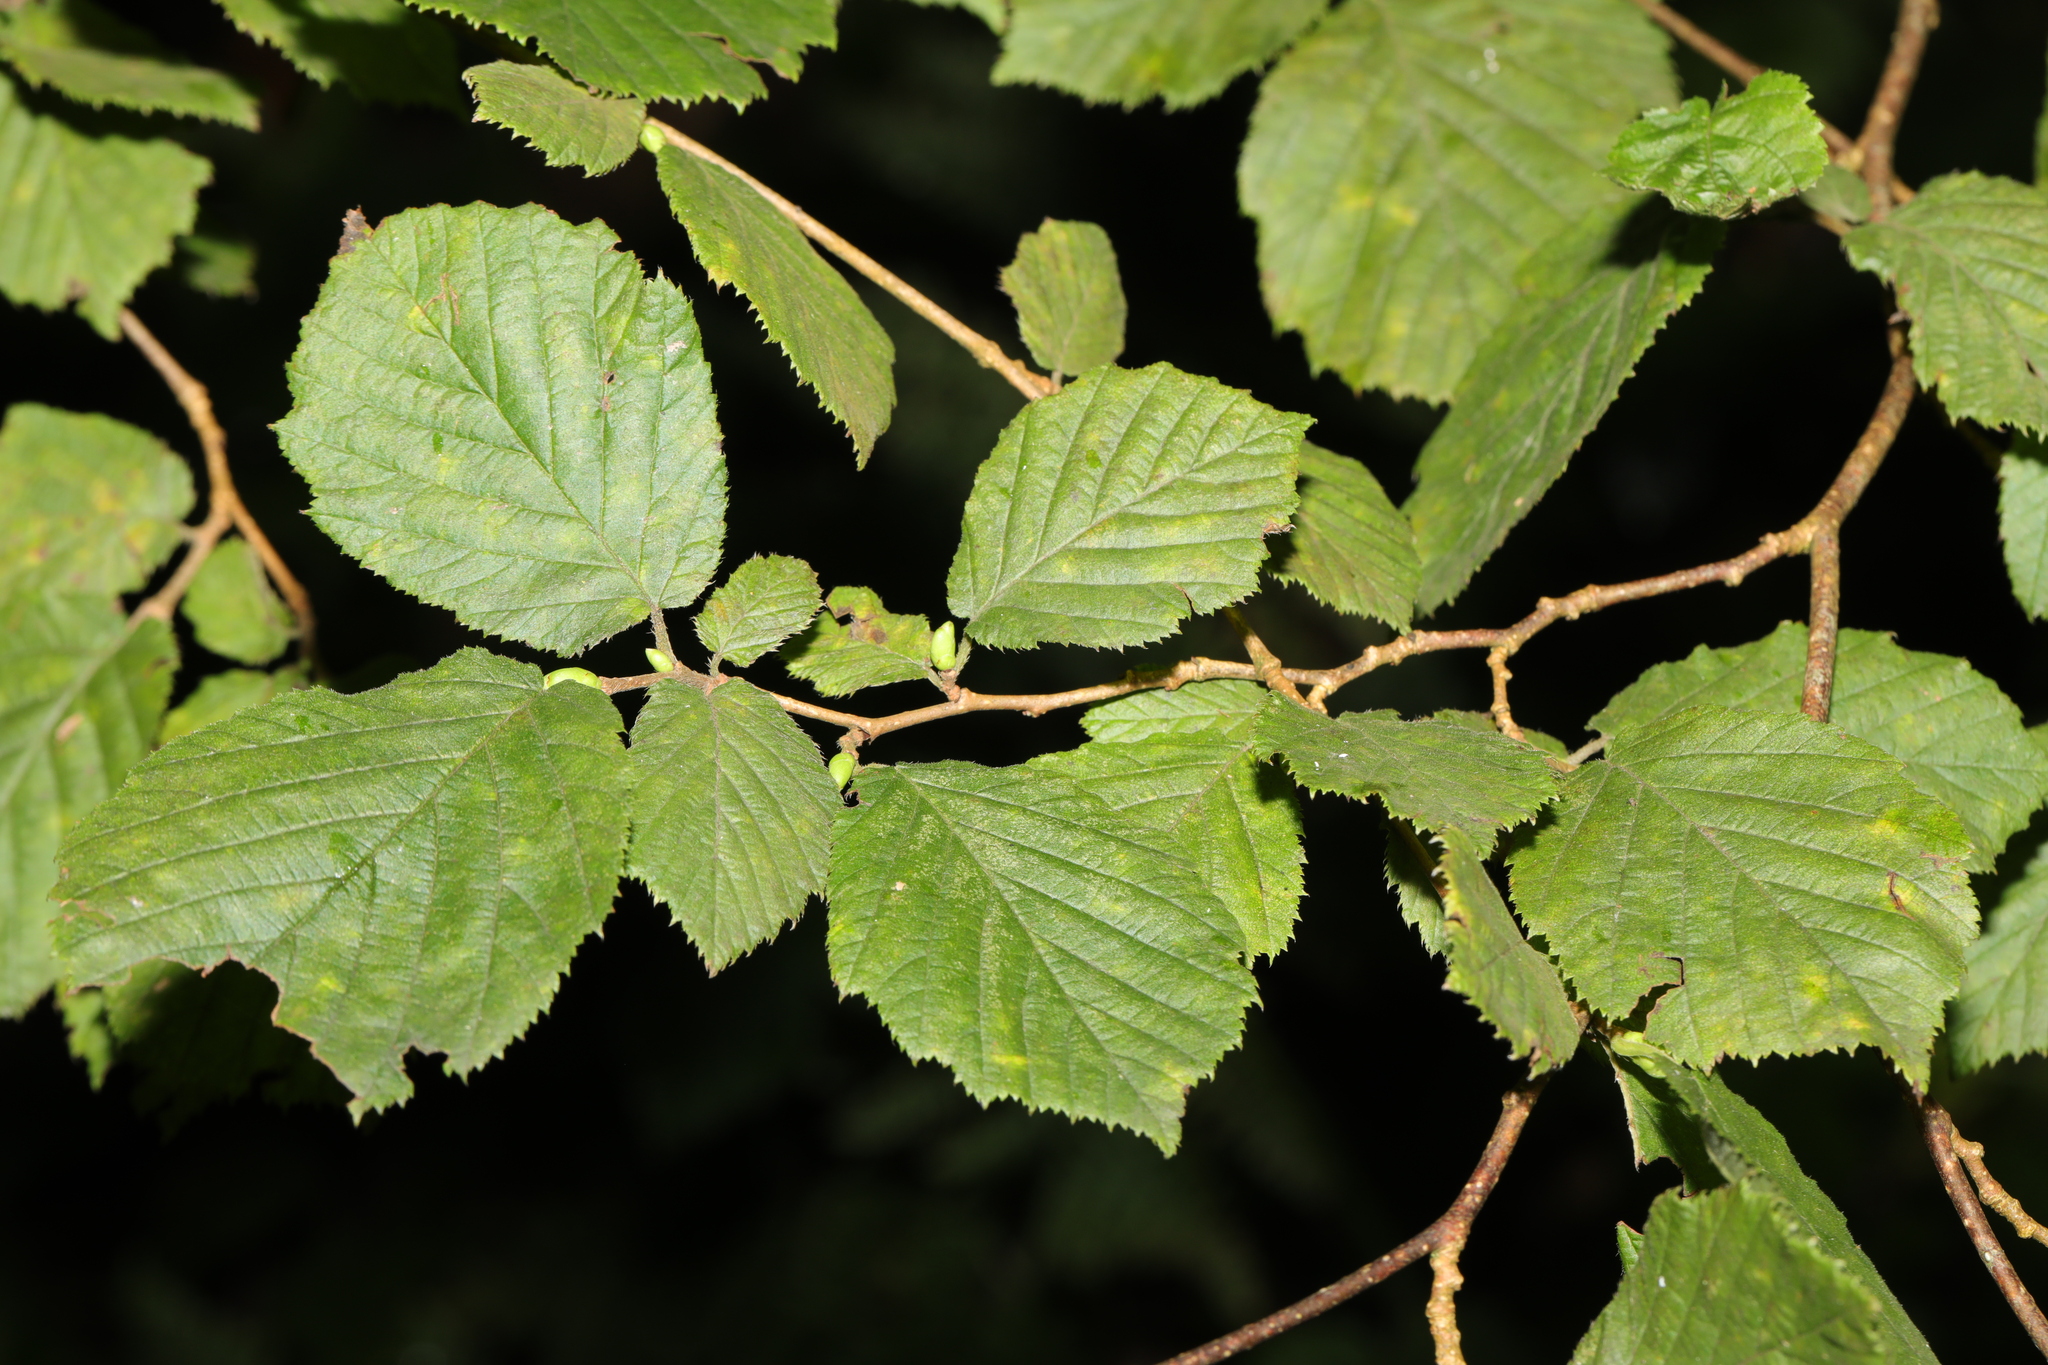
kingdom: Plantae
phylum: Tracheophyta
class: Magnoliopsida
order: Fagales
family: Betulaceae
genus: Corylus
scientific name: Corylus avellana
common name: European hazel
